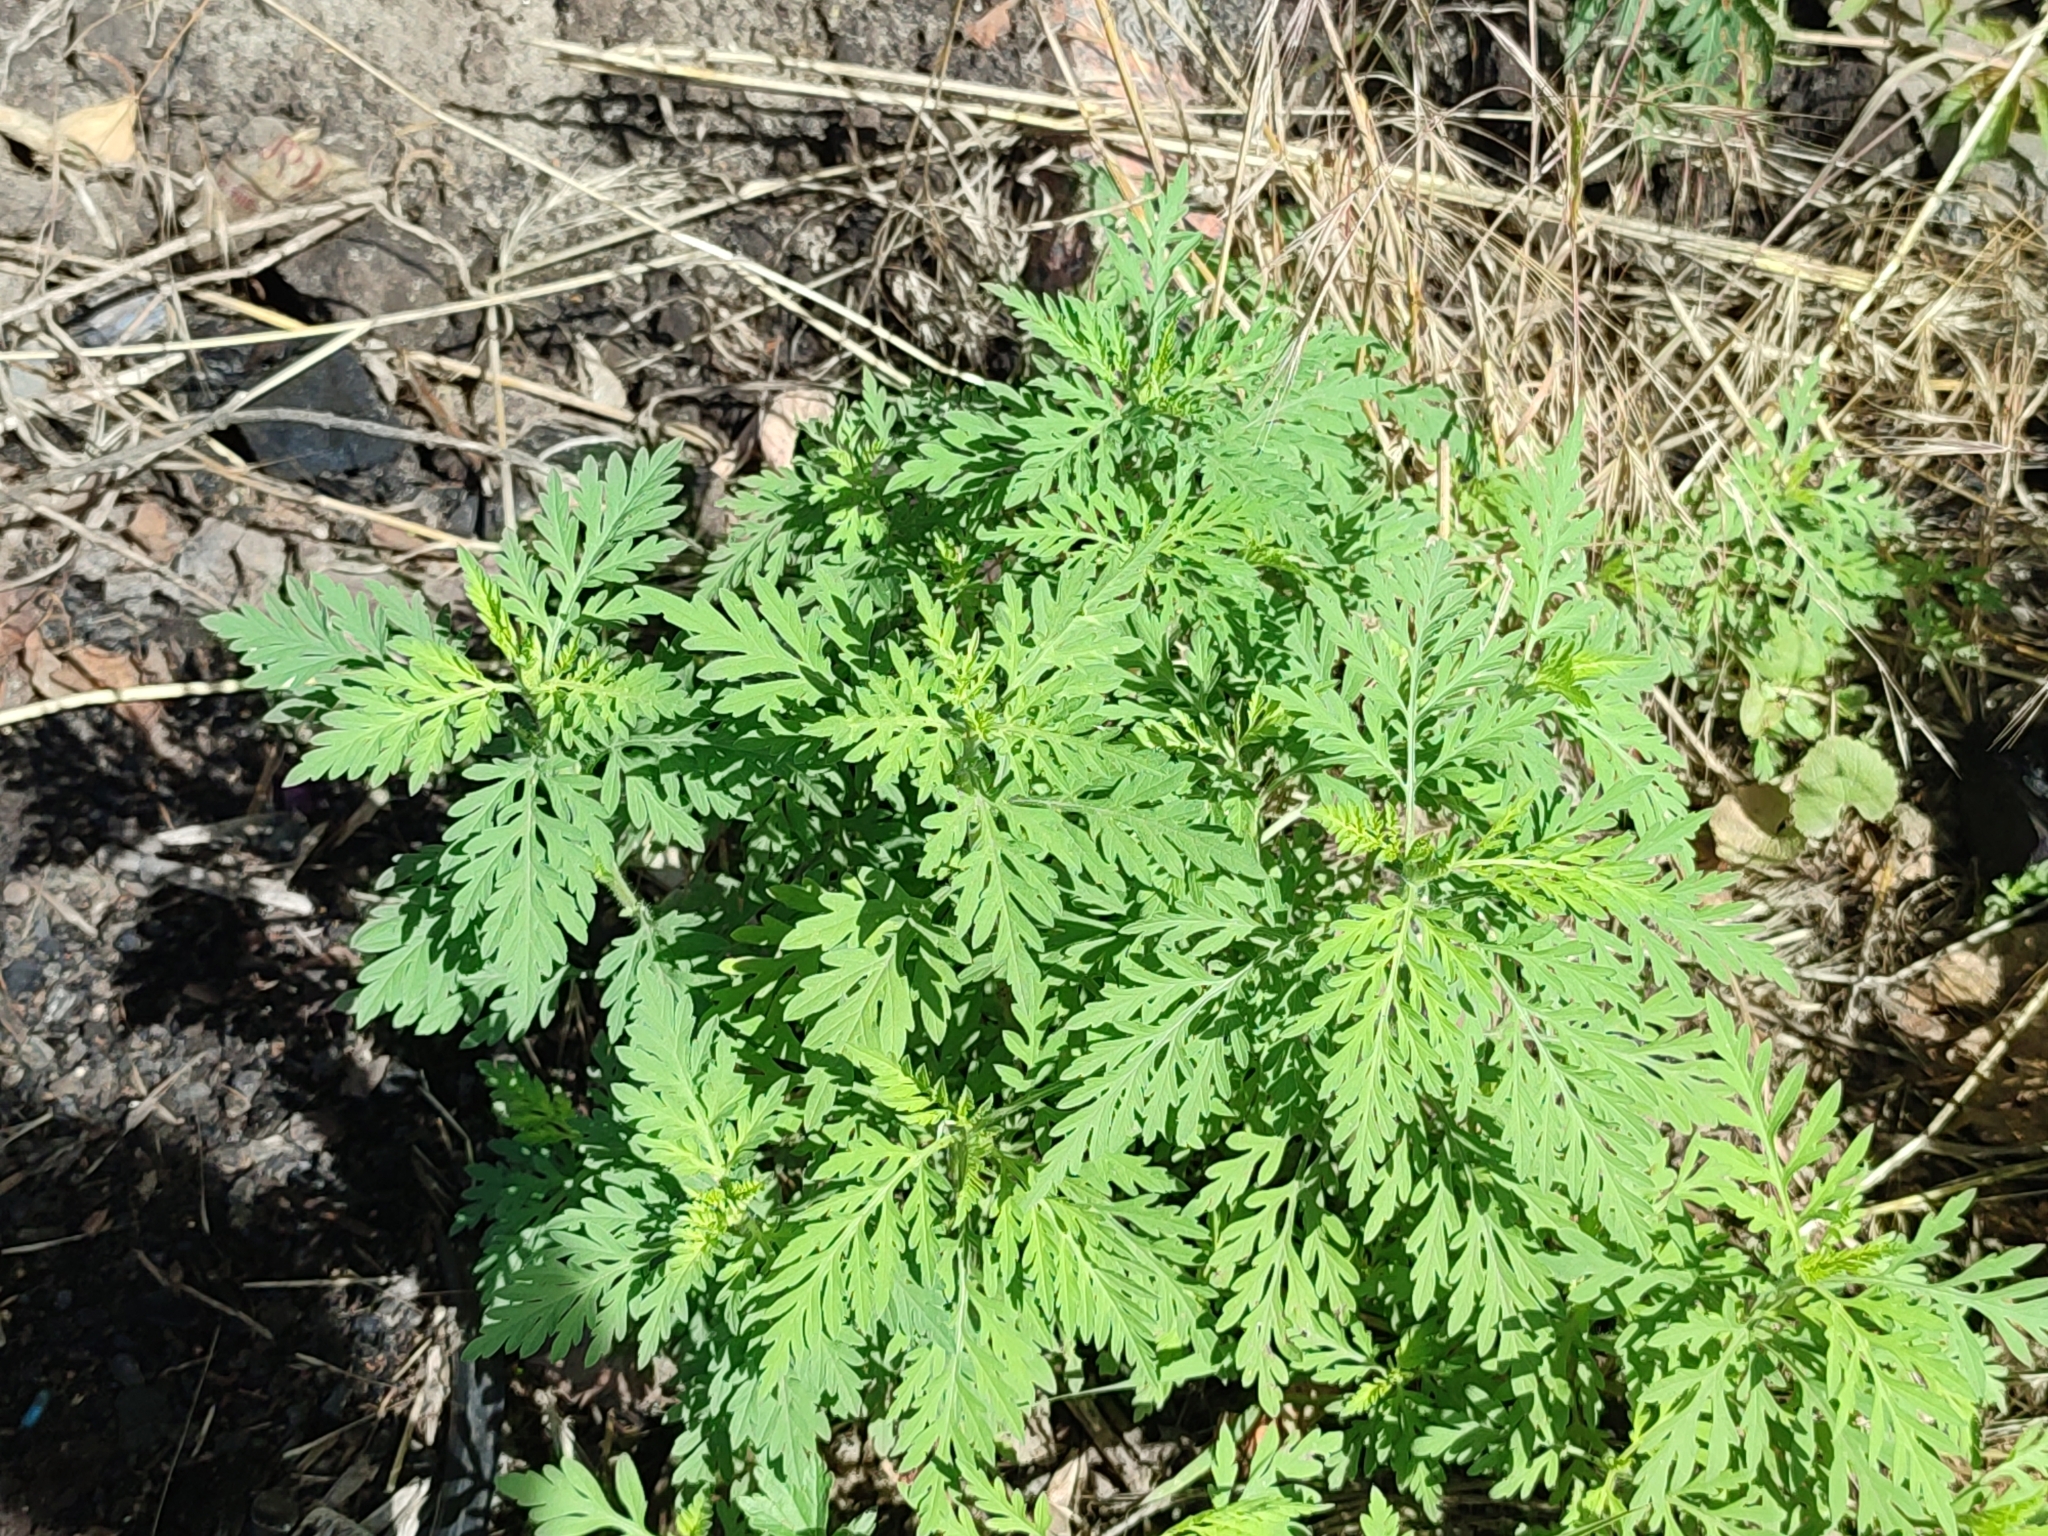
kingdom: Plantae
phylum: Tracheophyta
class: Magnoliopsida
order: Asterales
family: Asteraceae
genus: Ambrosia
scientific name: Ambrosia artemisiifolia
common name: Annual ragweed
